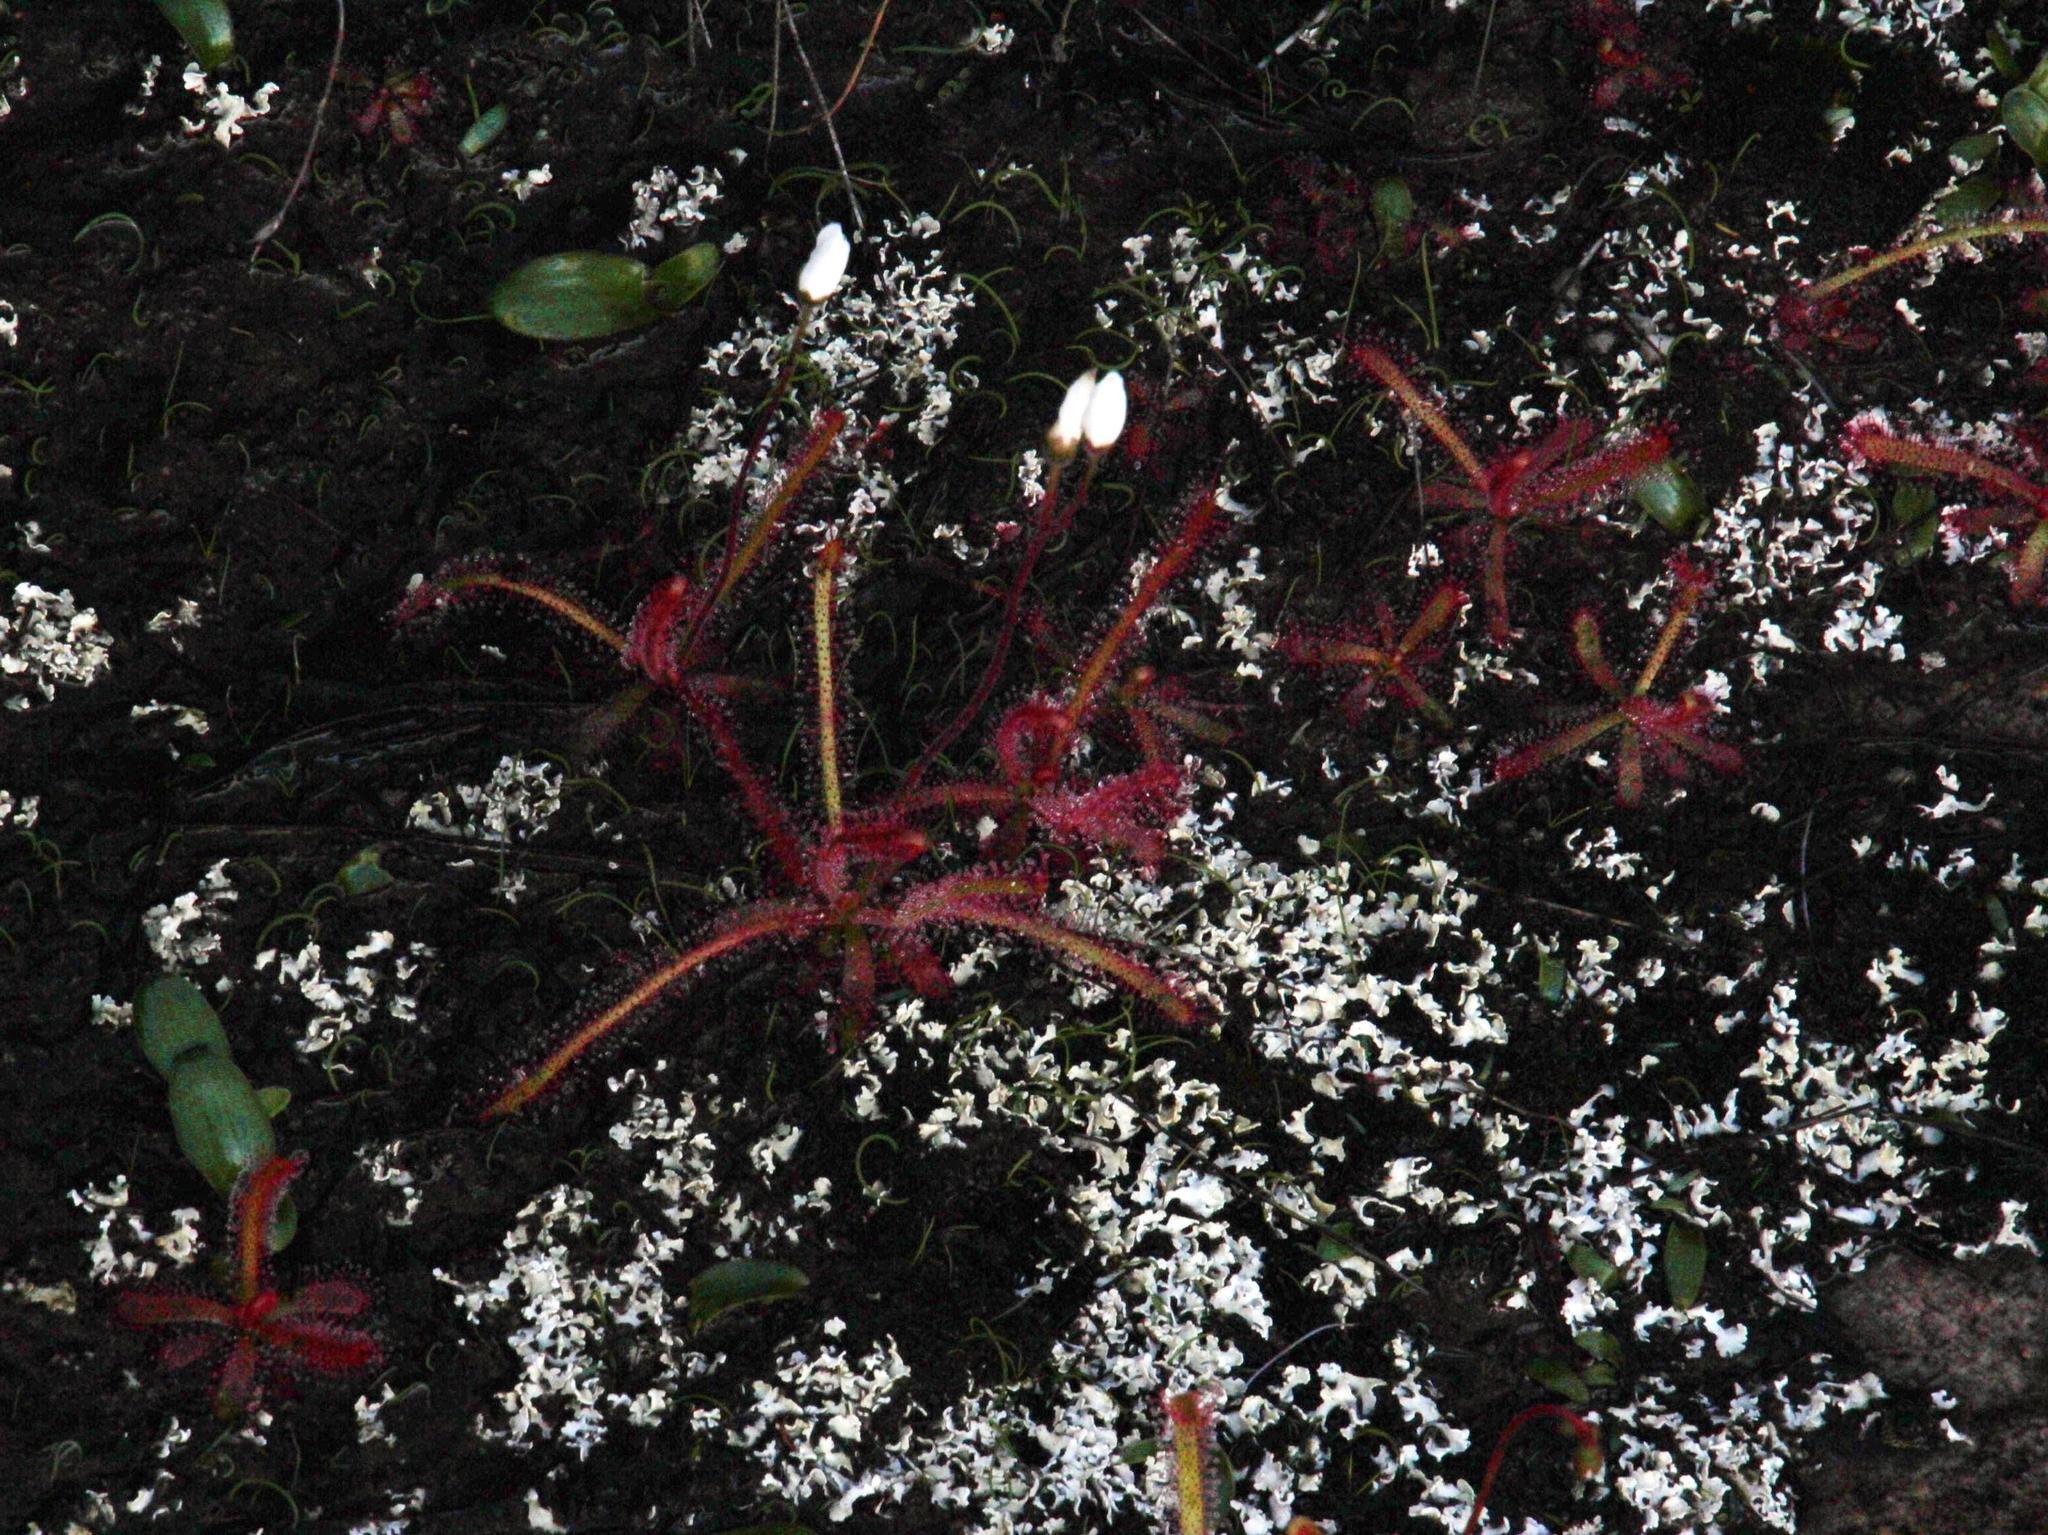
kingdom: Plantae
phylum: Tracheophyta
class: Magnoliopsida
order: Caryophyllales
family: Droseraceae
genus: Drosera
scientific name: Drosera alba
